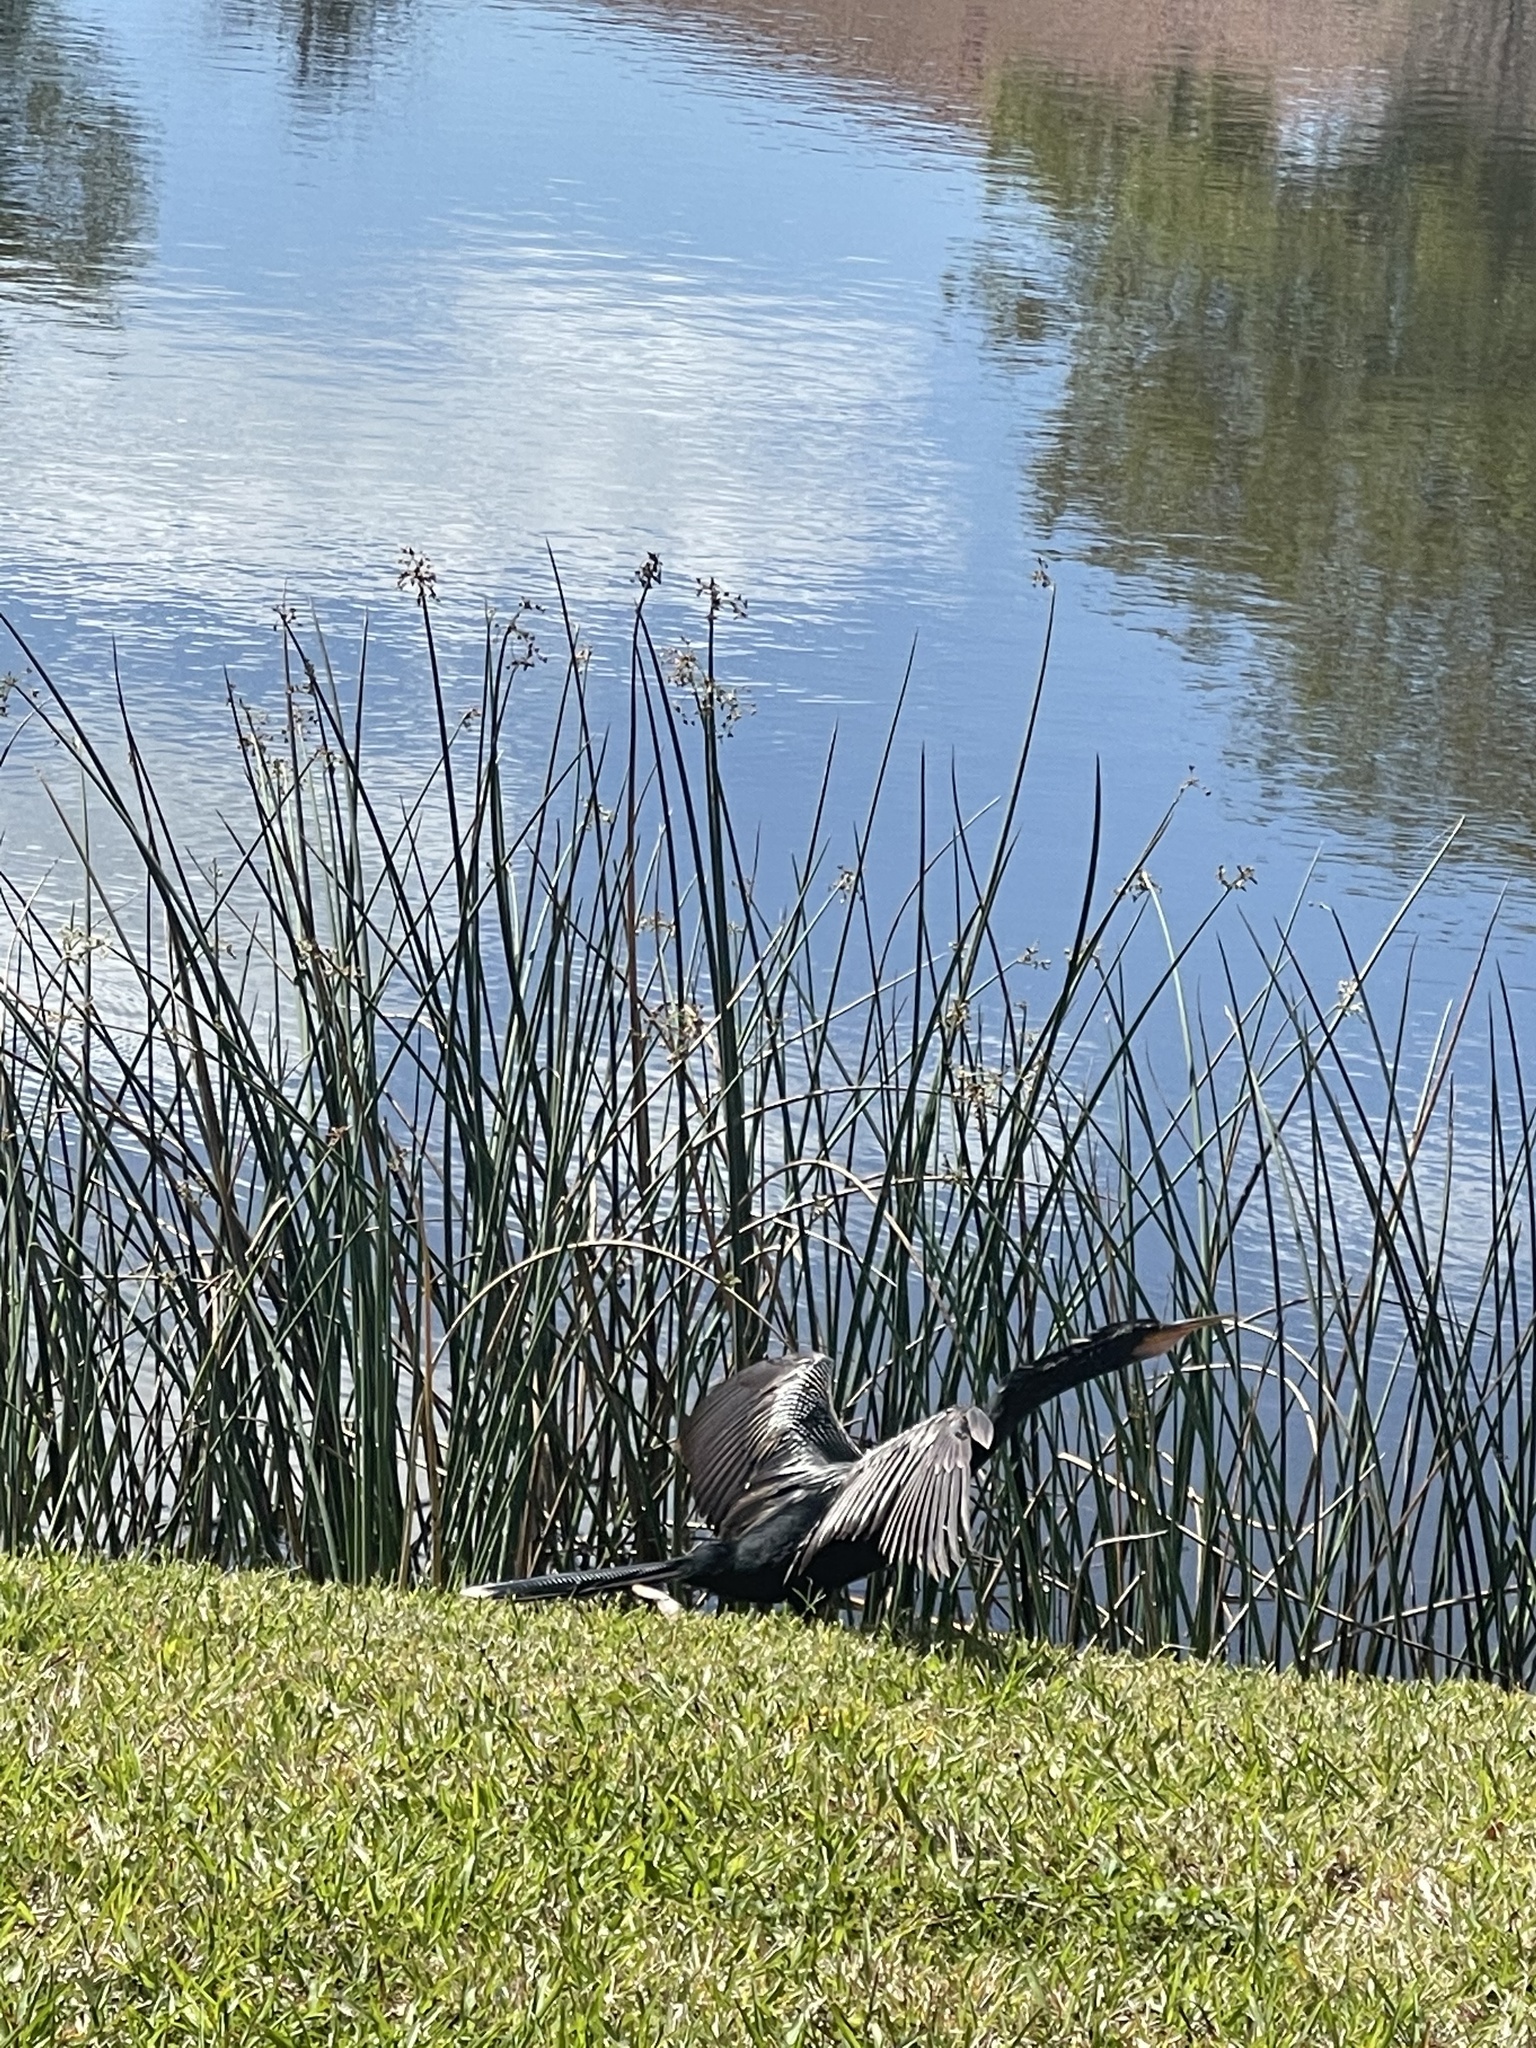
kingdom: Animalia
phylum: Chordata
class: Aves
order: Suliformes
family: Anhingidae
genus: Anhinga
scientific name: Anhinga anhinga
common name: Anhinga
